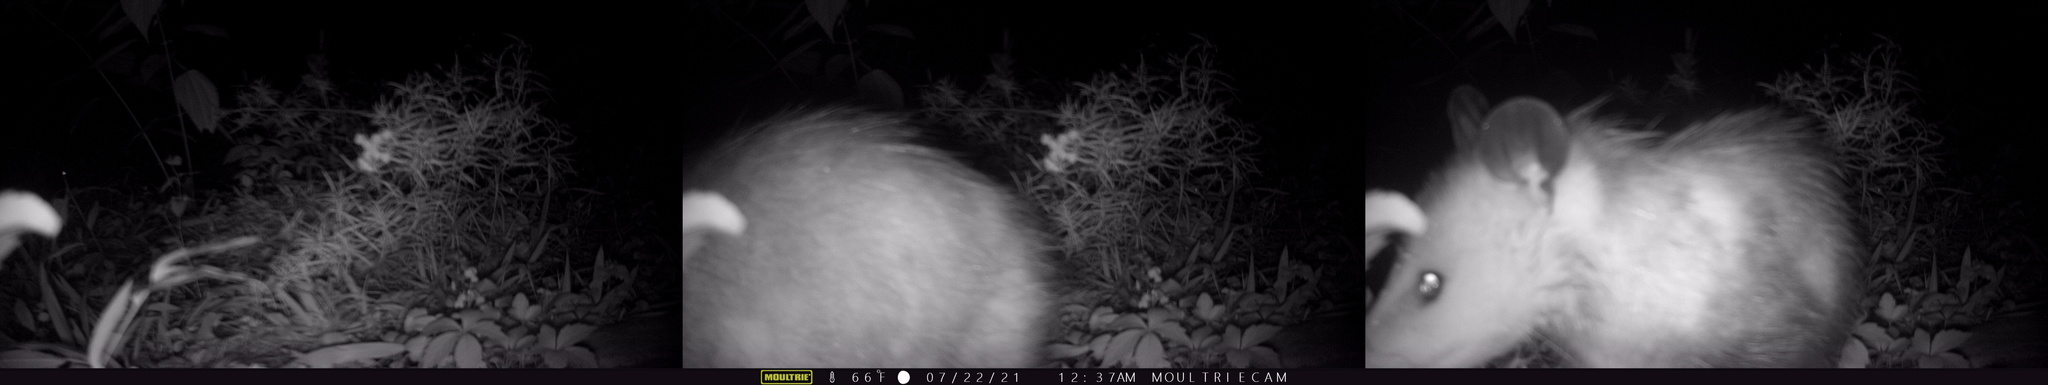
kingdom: Animalia
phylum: Chordata
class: Mammalia
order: Didelphimorphia
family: Didelphidae
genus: Didelphis
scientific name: Didelphis virginiana
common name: Virginia opossum
